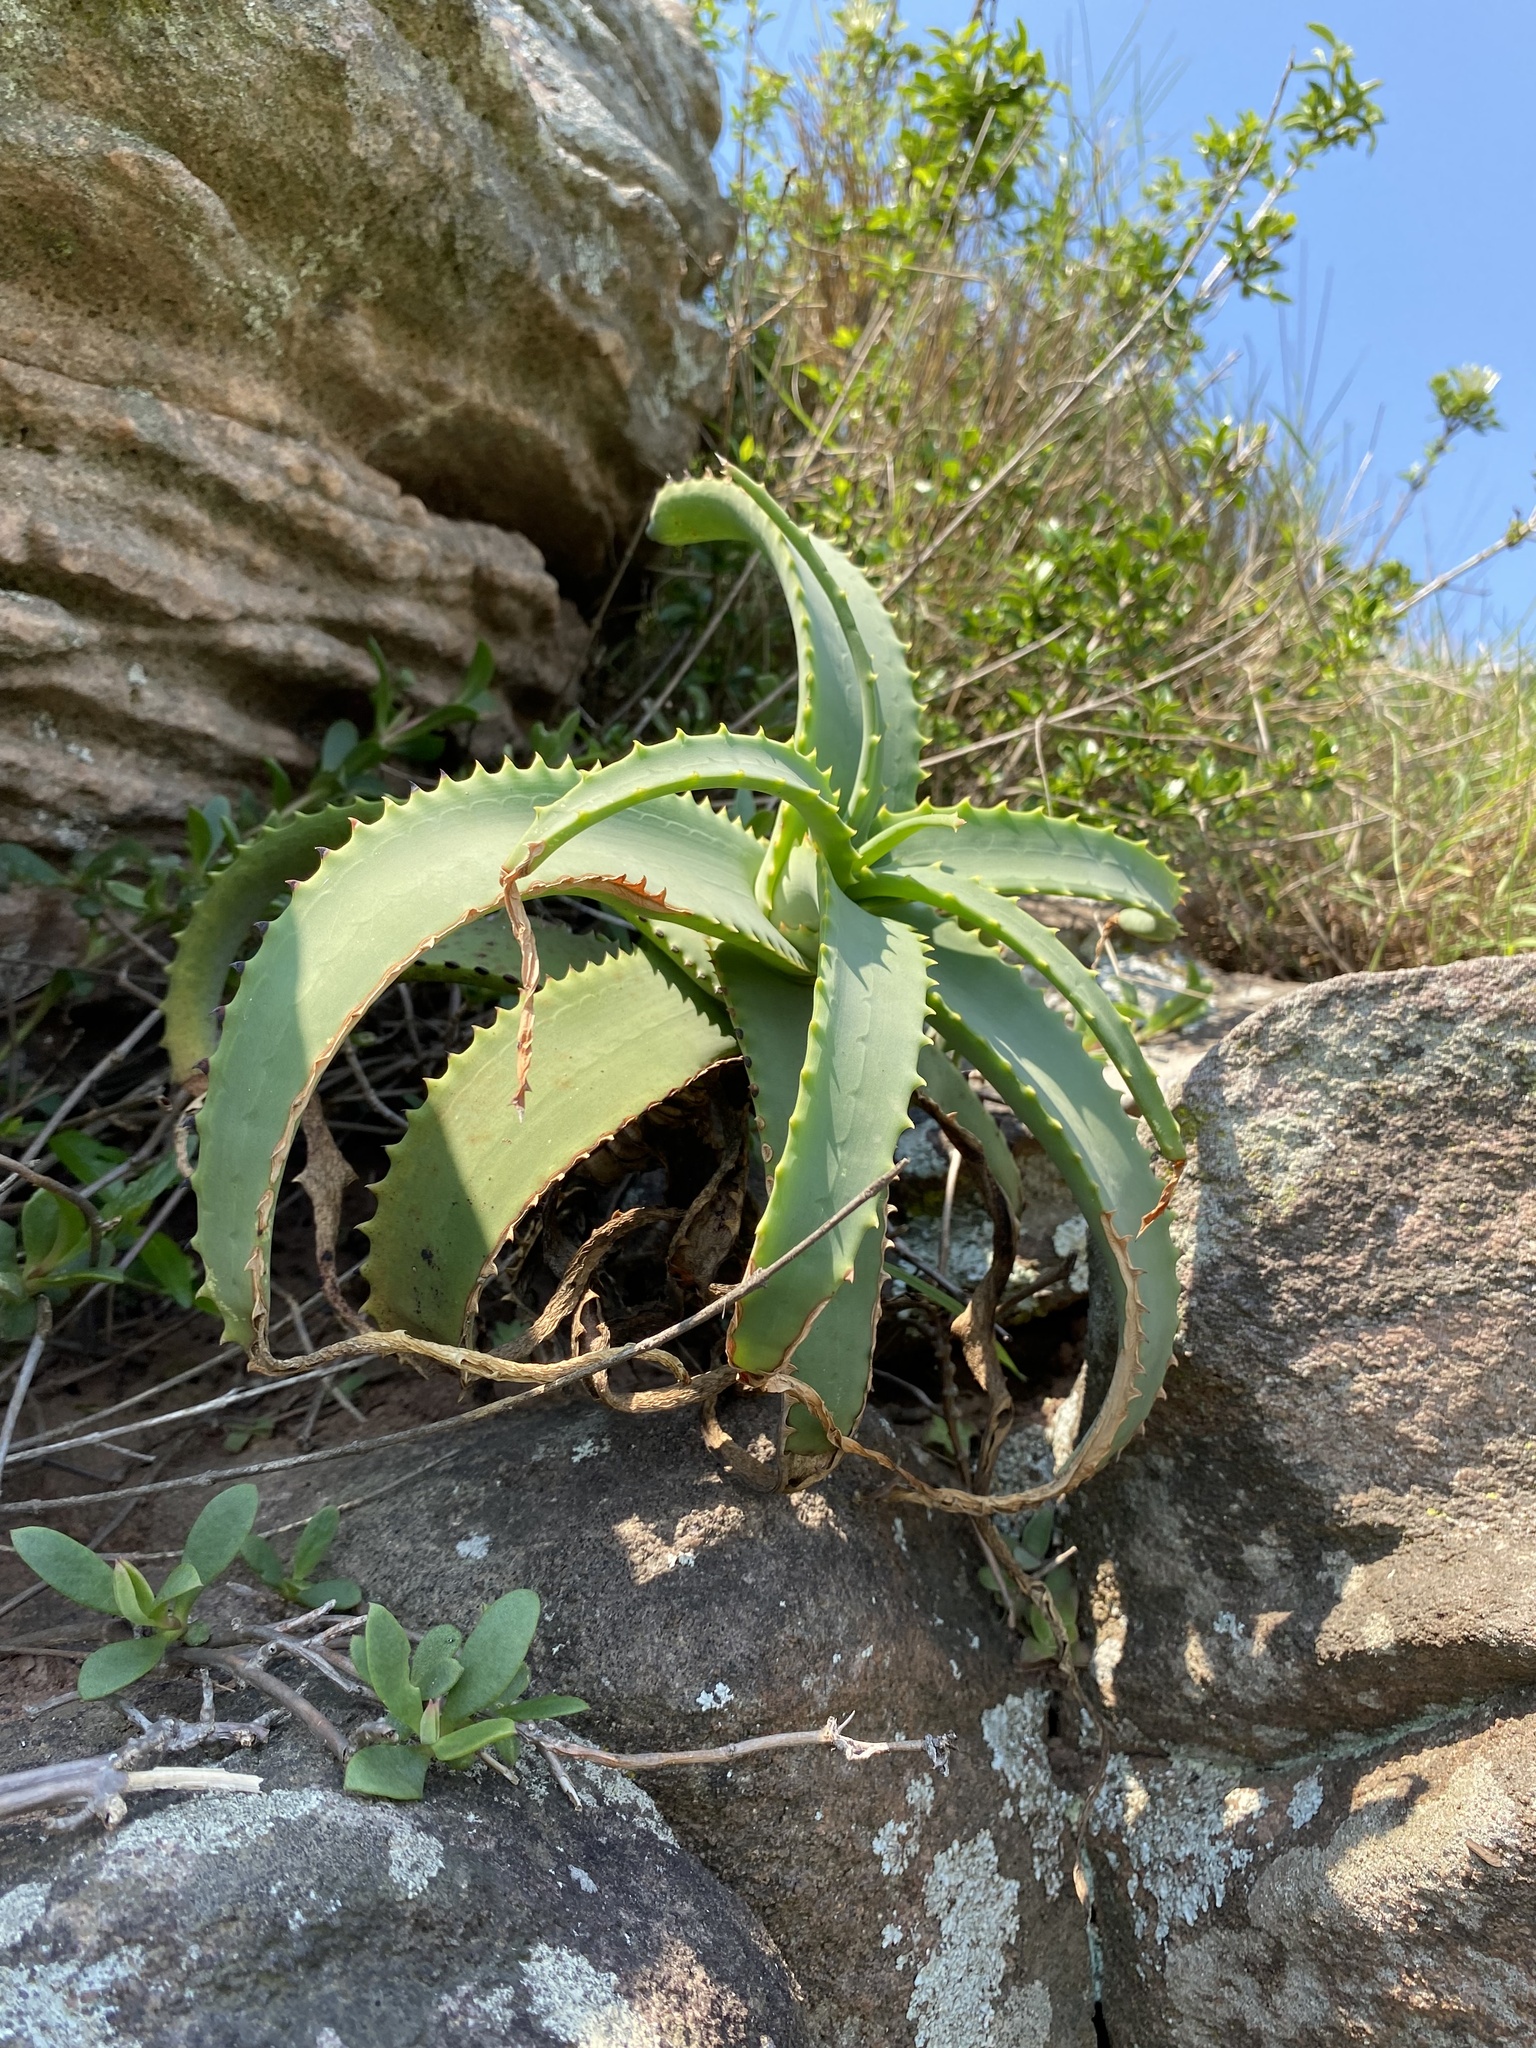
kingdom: Plantae
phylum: Tracheophyta
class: Liliopsida
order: Asparagales
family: Asphodelaceae
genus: Aloe
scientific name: Aloe arborescens
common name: Candelabra aloe
